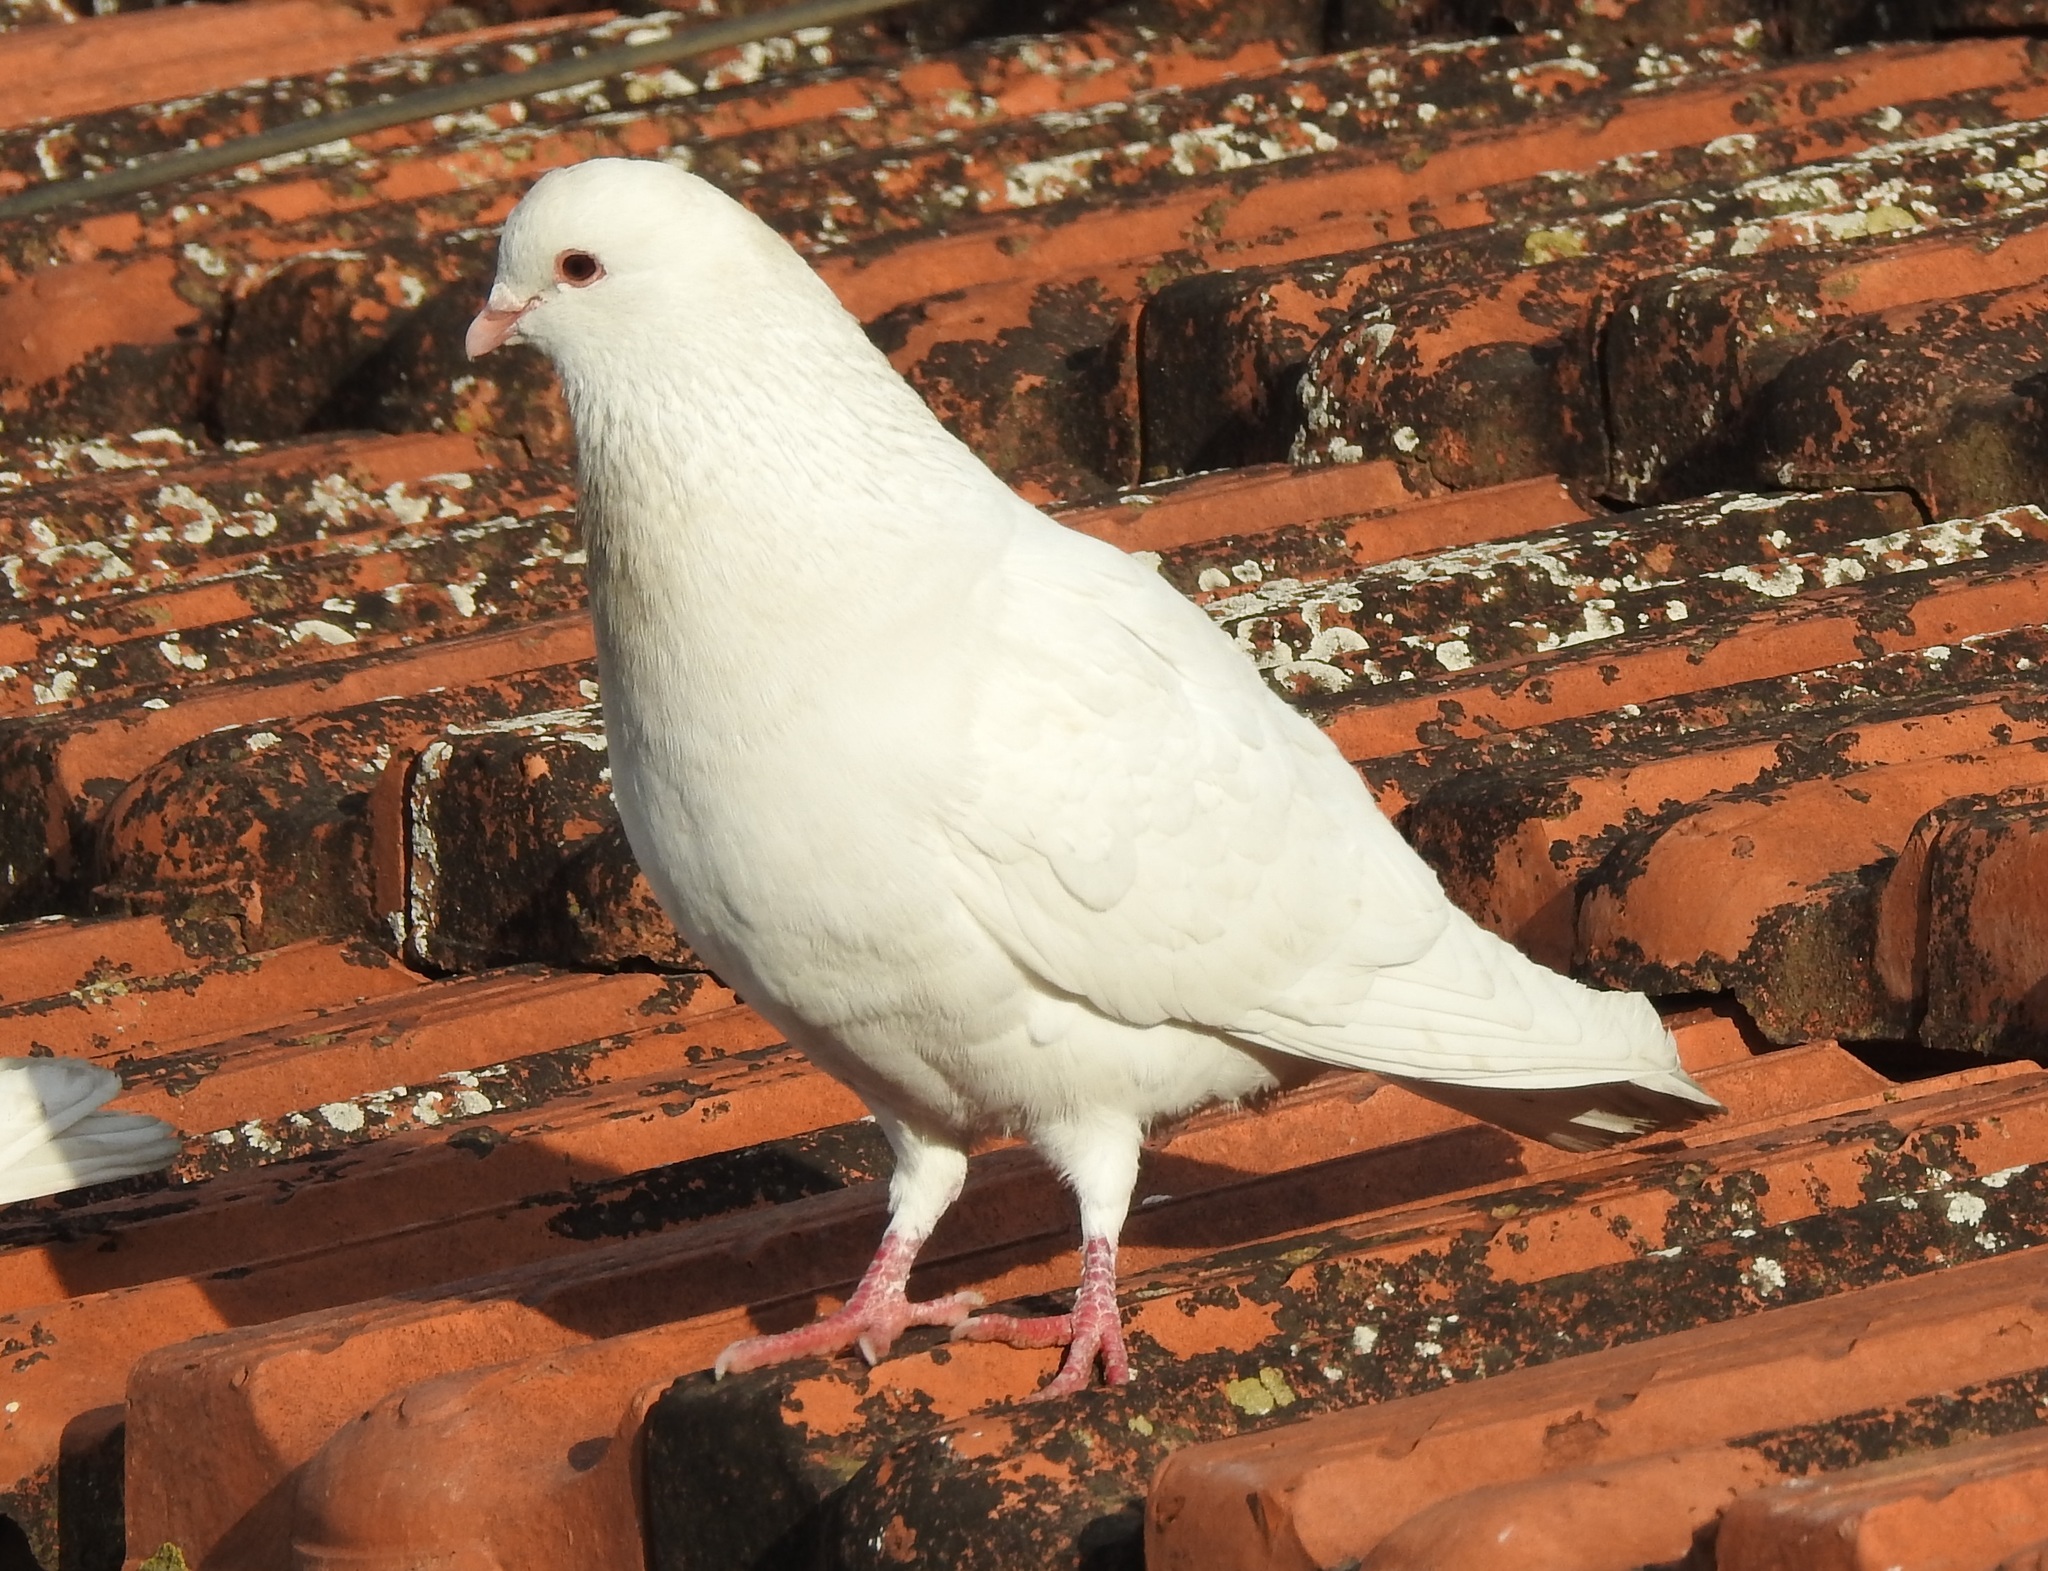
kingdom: Animalia
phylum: Chordata
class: Aves
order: Columbiformes
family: Columbidae
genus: Columba
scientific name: Columba livia
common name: Rock pigeon
